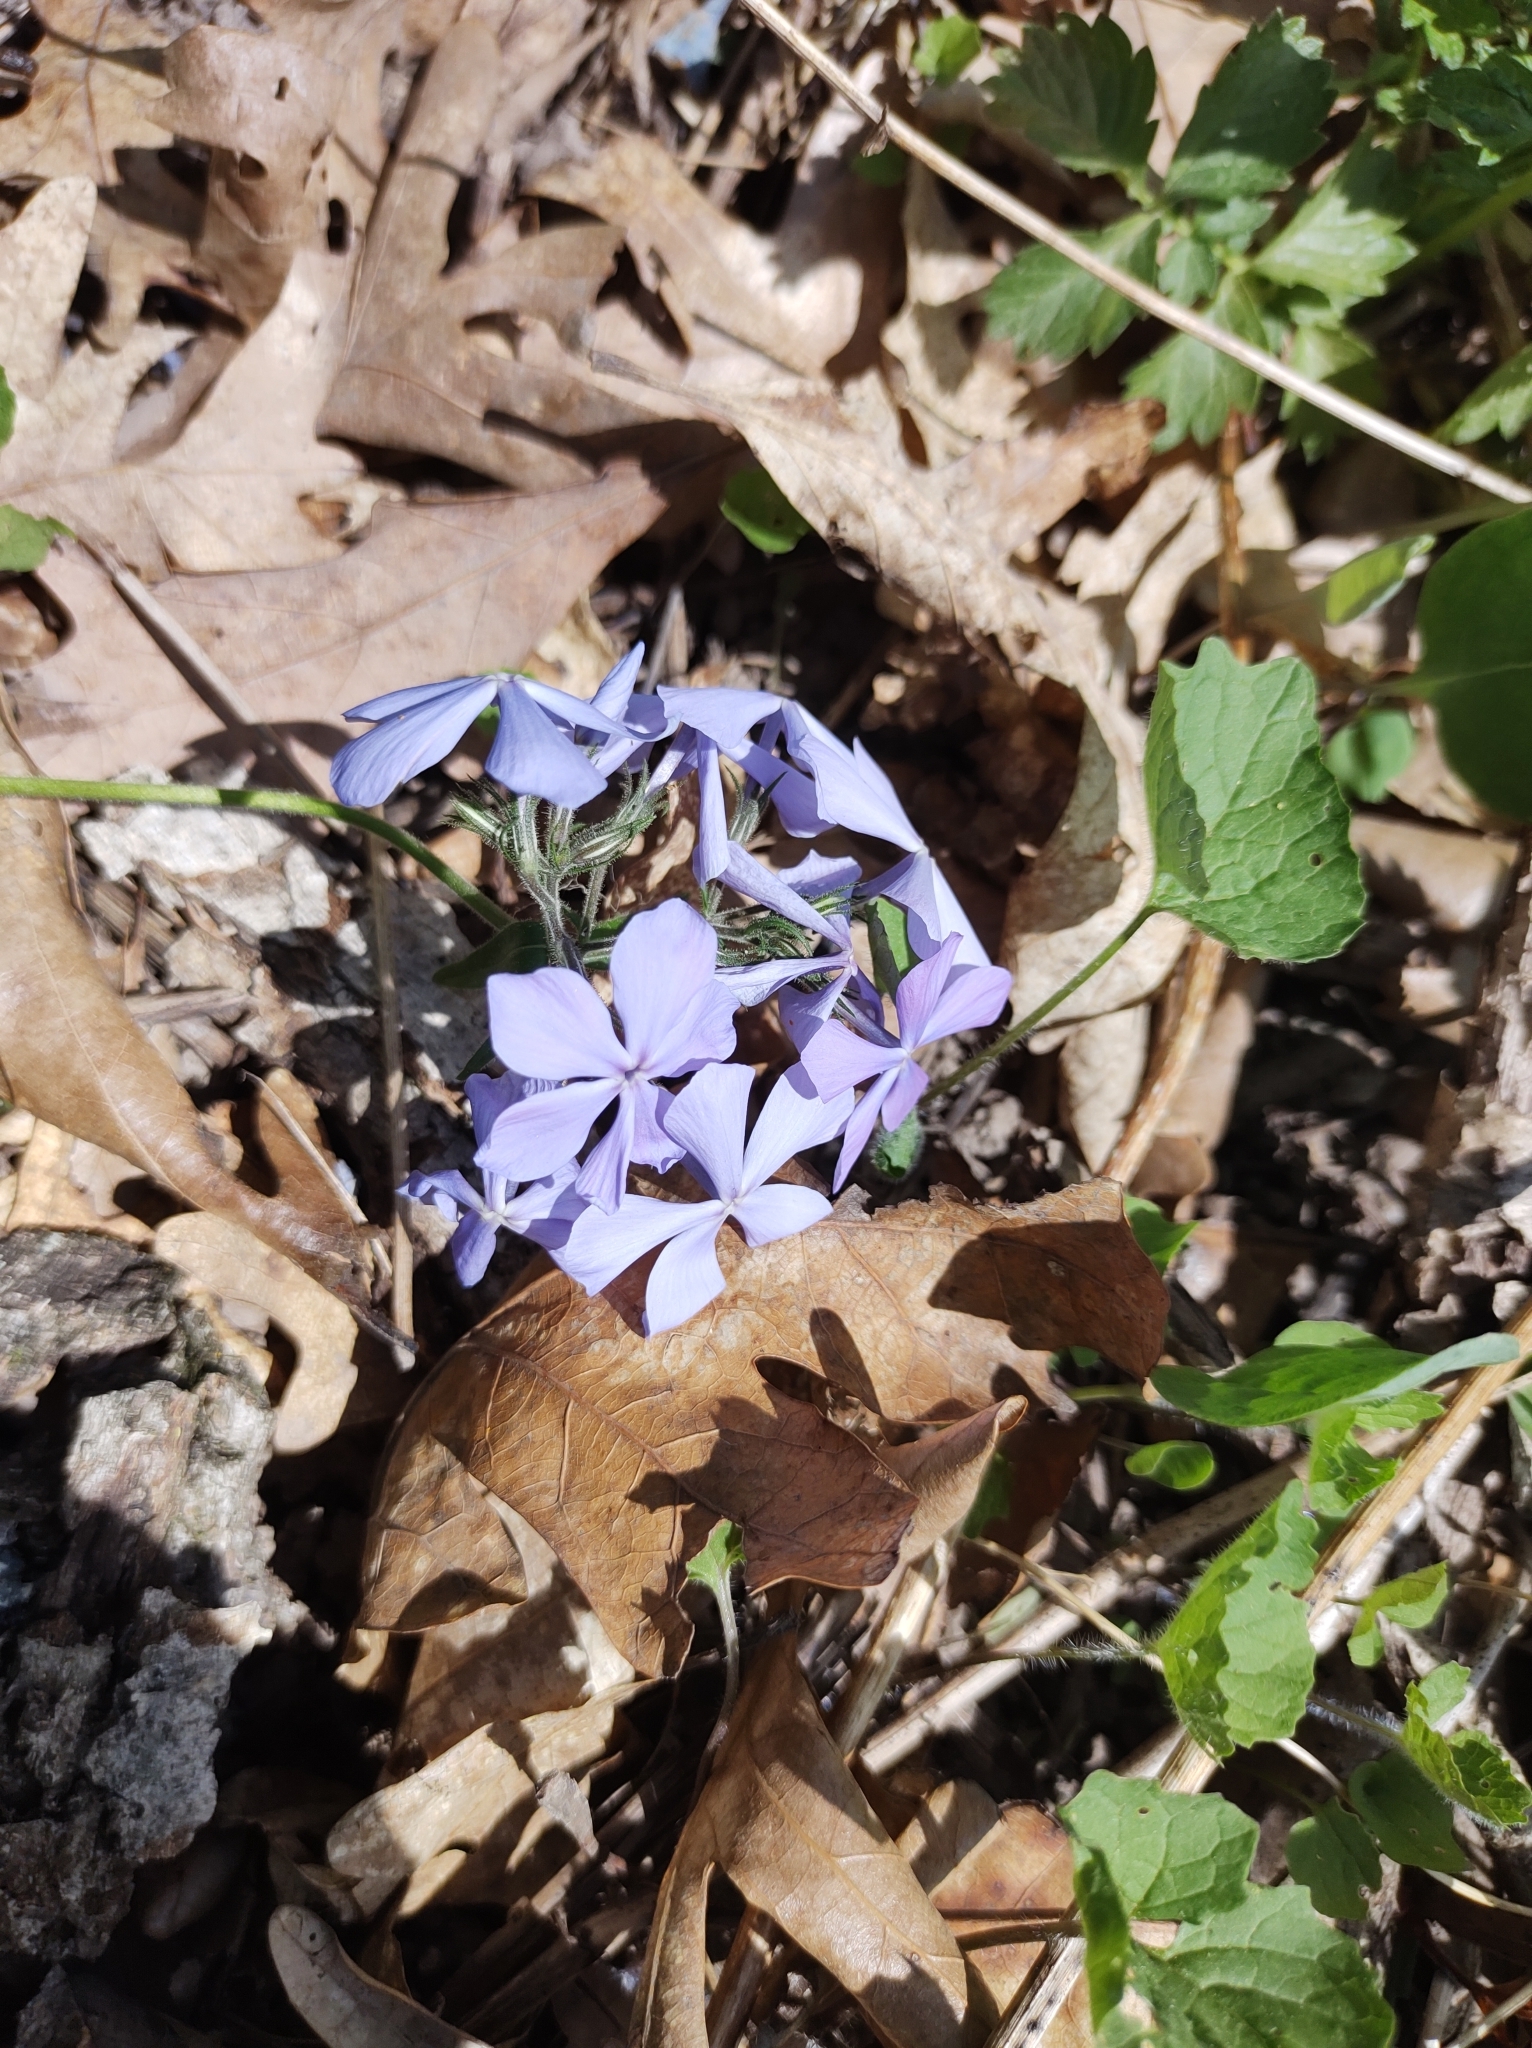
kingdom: Plantae
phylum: Tracheophyta
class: Magnoliopsida
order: Ericales
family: Polemoniaceae
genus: Phlox
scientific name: Phlox divaricata
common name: Blue phlox
